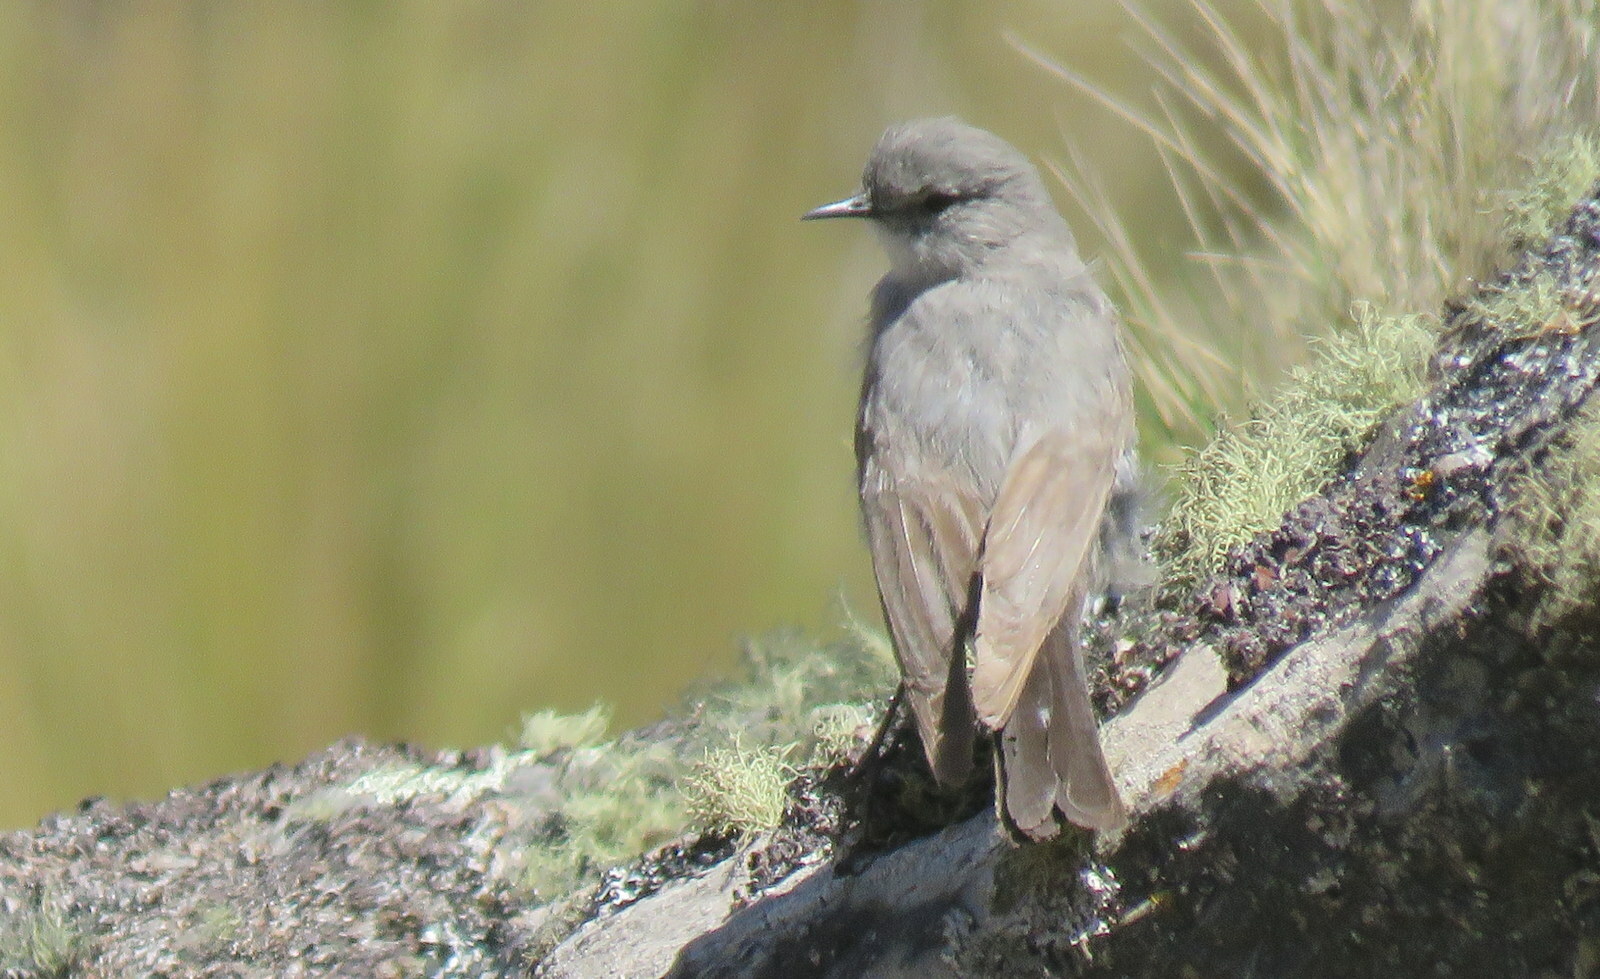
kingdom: Animalia
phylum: Chordata
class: Aves
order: Passeriformes
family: Tyrannidae
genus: Muscisaxicola
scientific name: Muscisaxicola cinereus
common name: Cinereous ground tyrant
